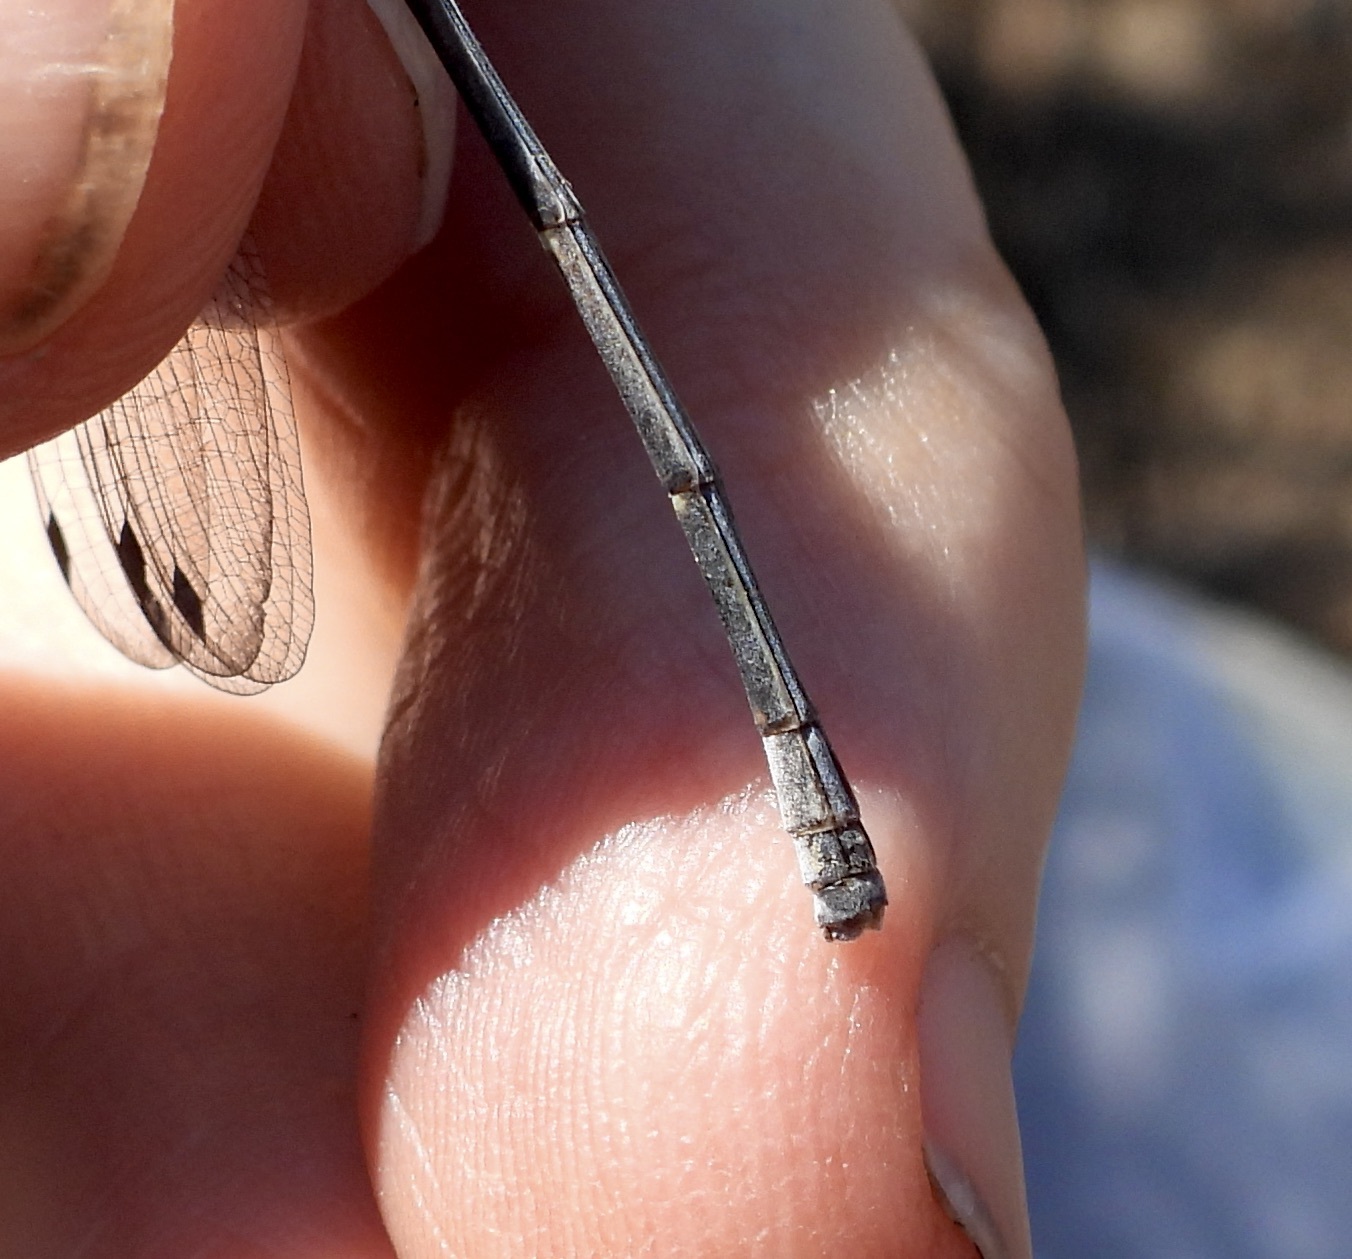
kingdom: Animalia
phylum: Arthropoda
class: Insecta
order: Odonata
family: Coenagrionidae
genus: Argia
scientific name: Argia moesta
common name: Powdered dancer
